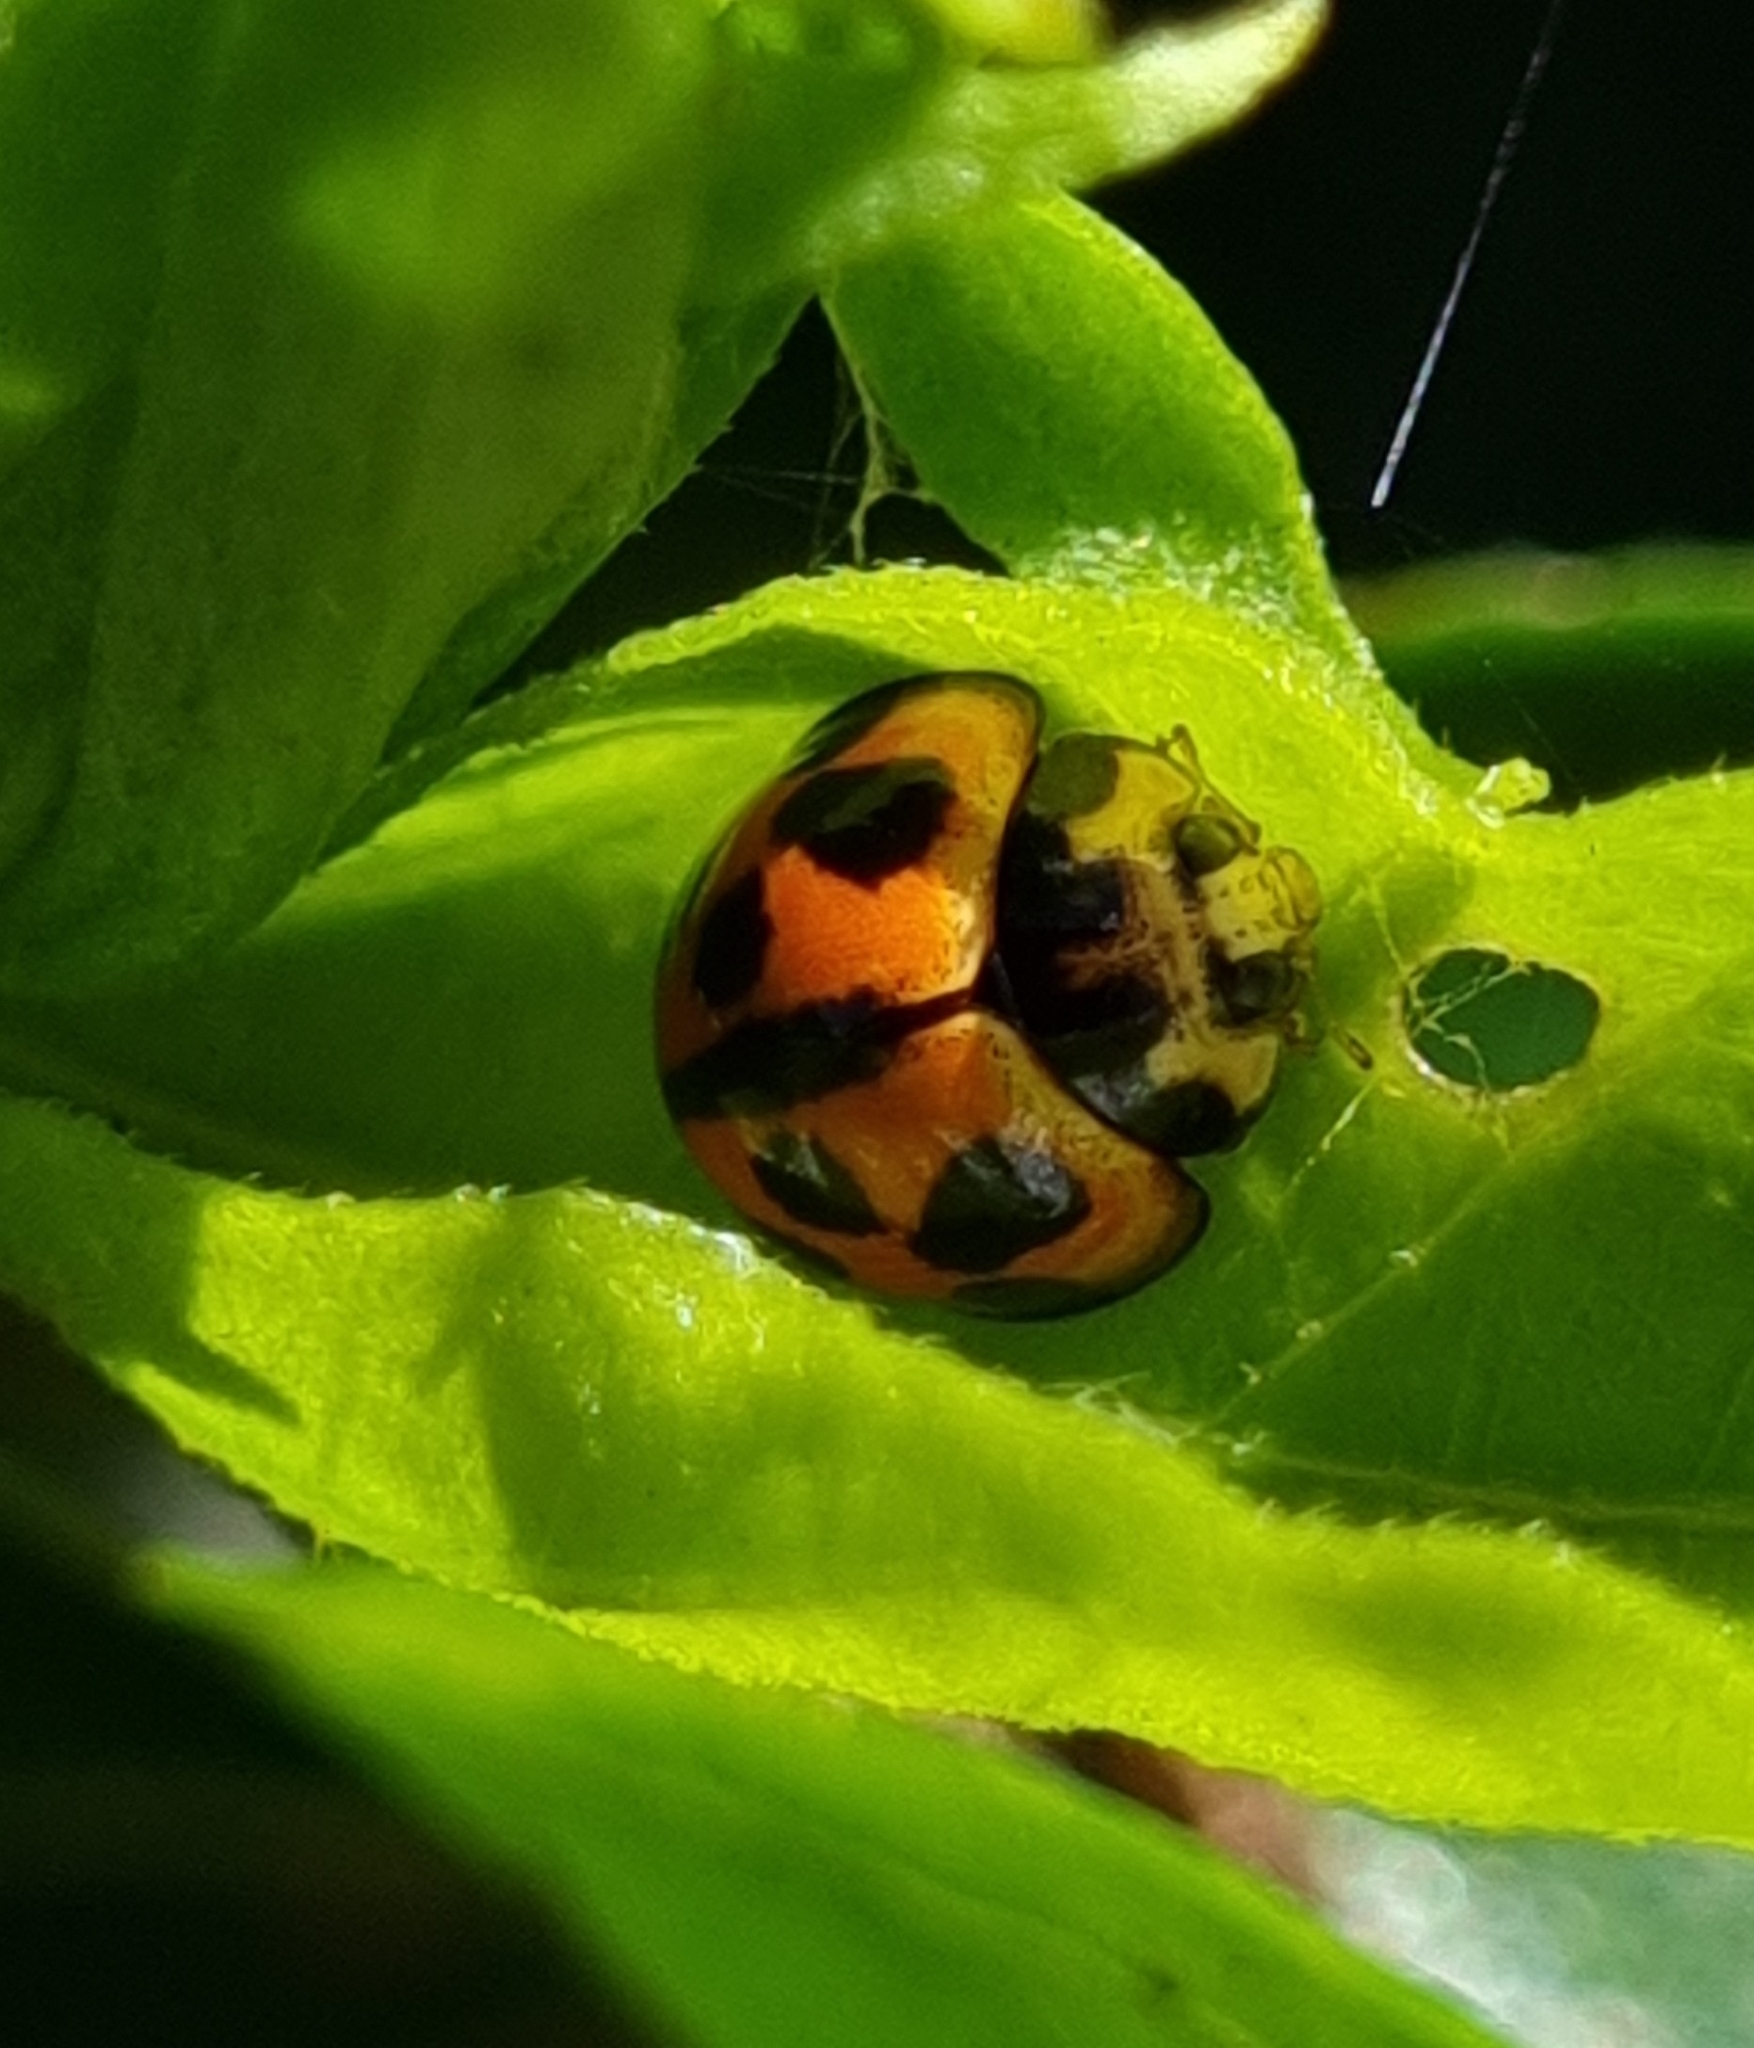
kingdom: Animalia
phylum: Arthropoda
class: Insecta
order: Coleoptera
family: Coccinellidae
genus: Coelophora
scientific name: Coelophora inaequalis
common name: Common australian lady beetle
